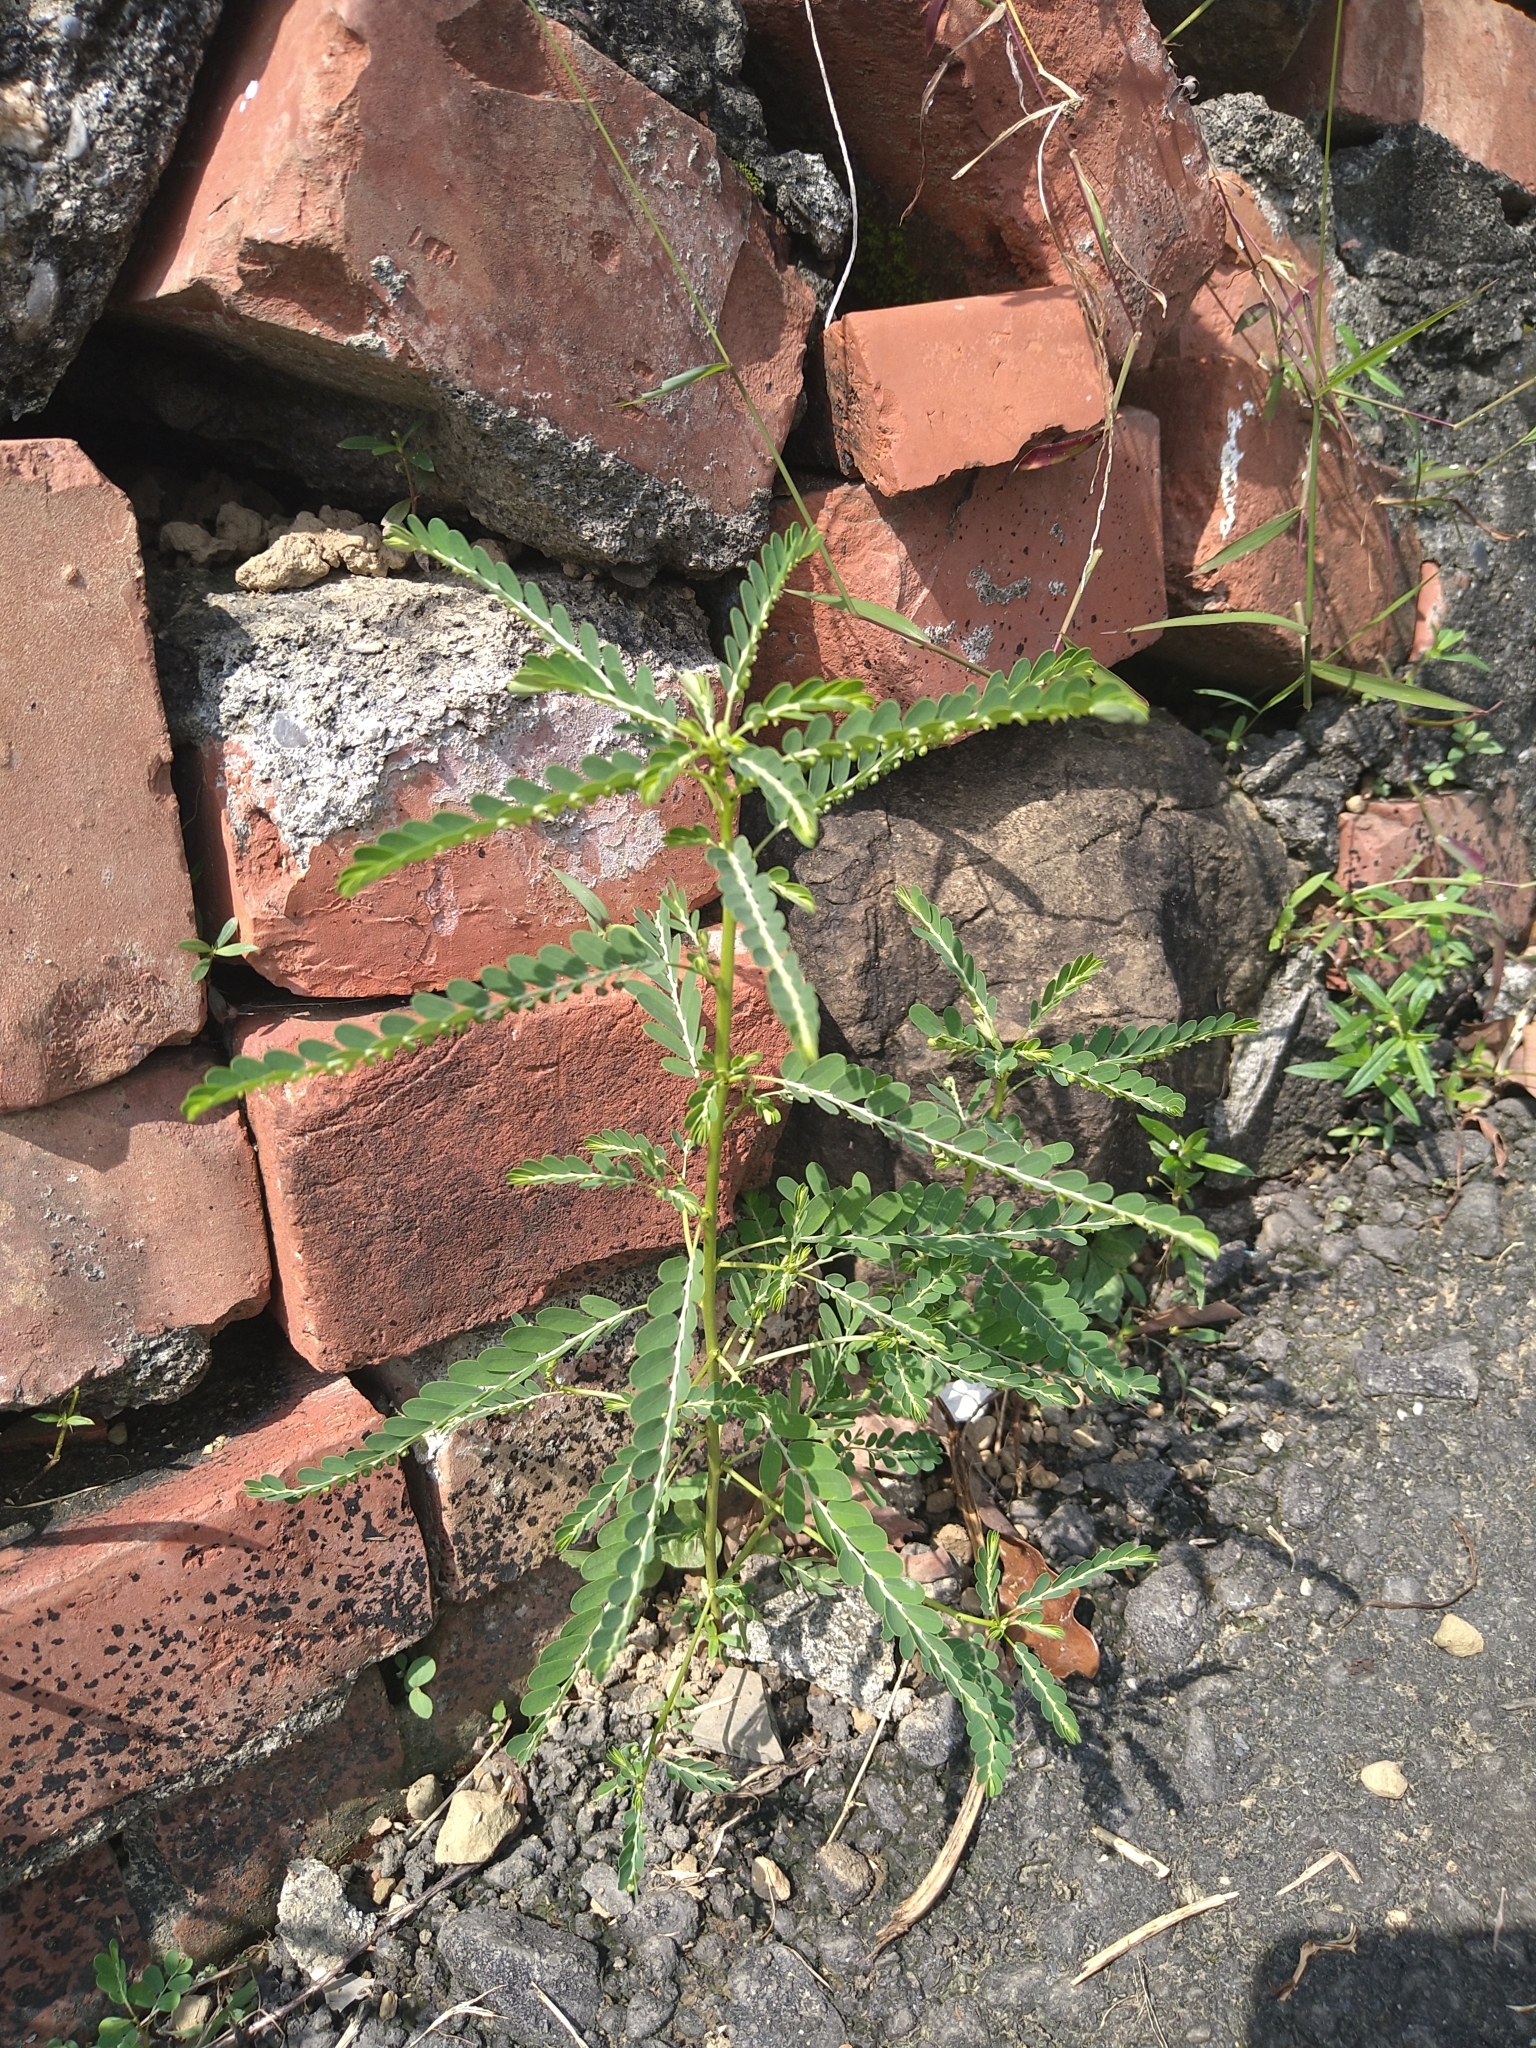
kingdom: Plantae
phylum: Tracheophyta
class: Magnoliopsida
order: Malpighiales
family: Phyllanthaceae
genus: Phyllanthus
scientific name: Phyllanthus amarus
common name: Carry me seed
